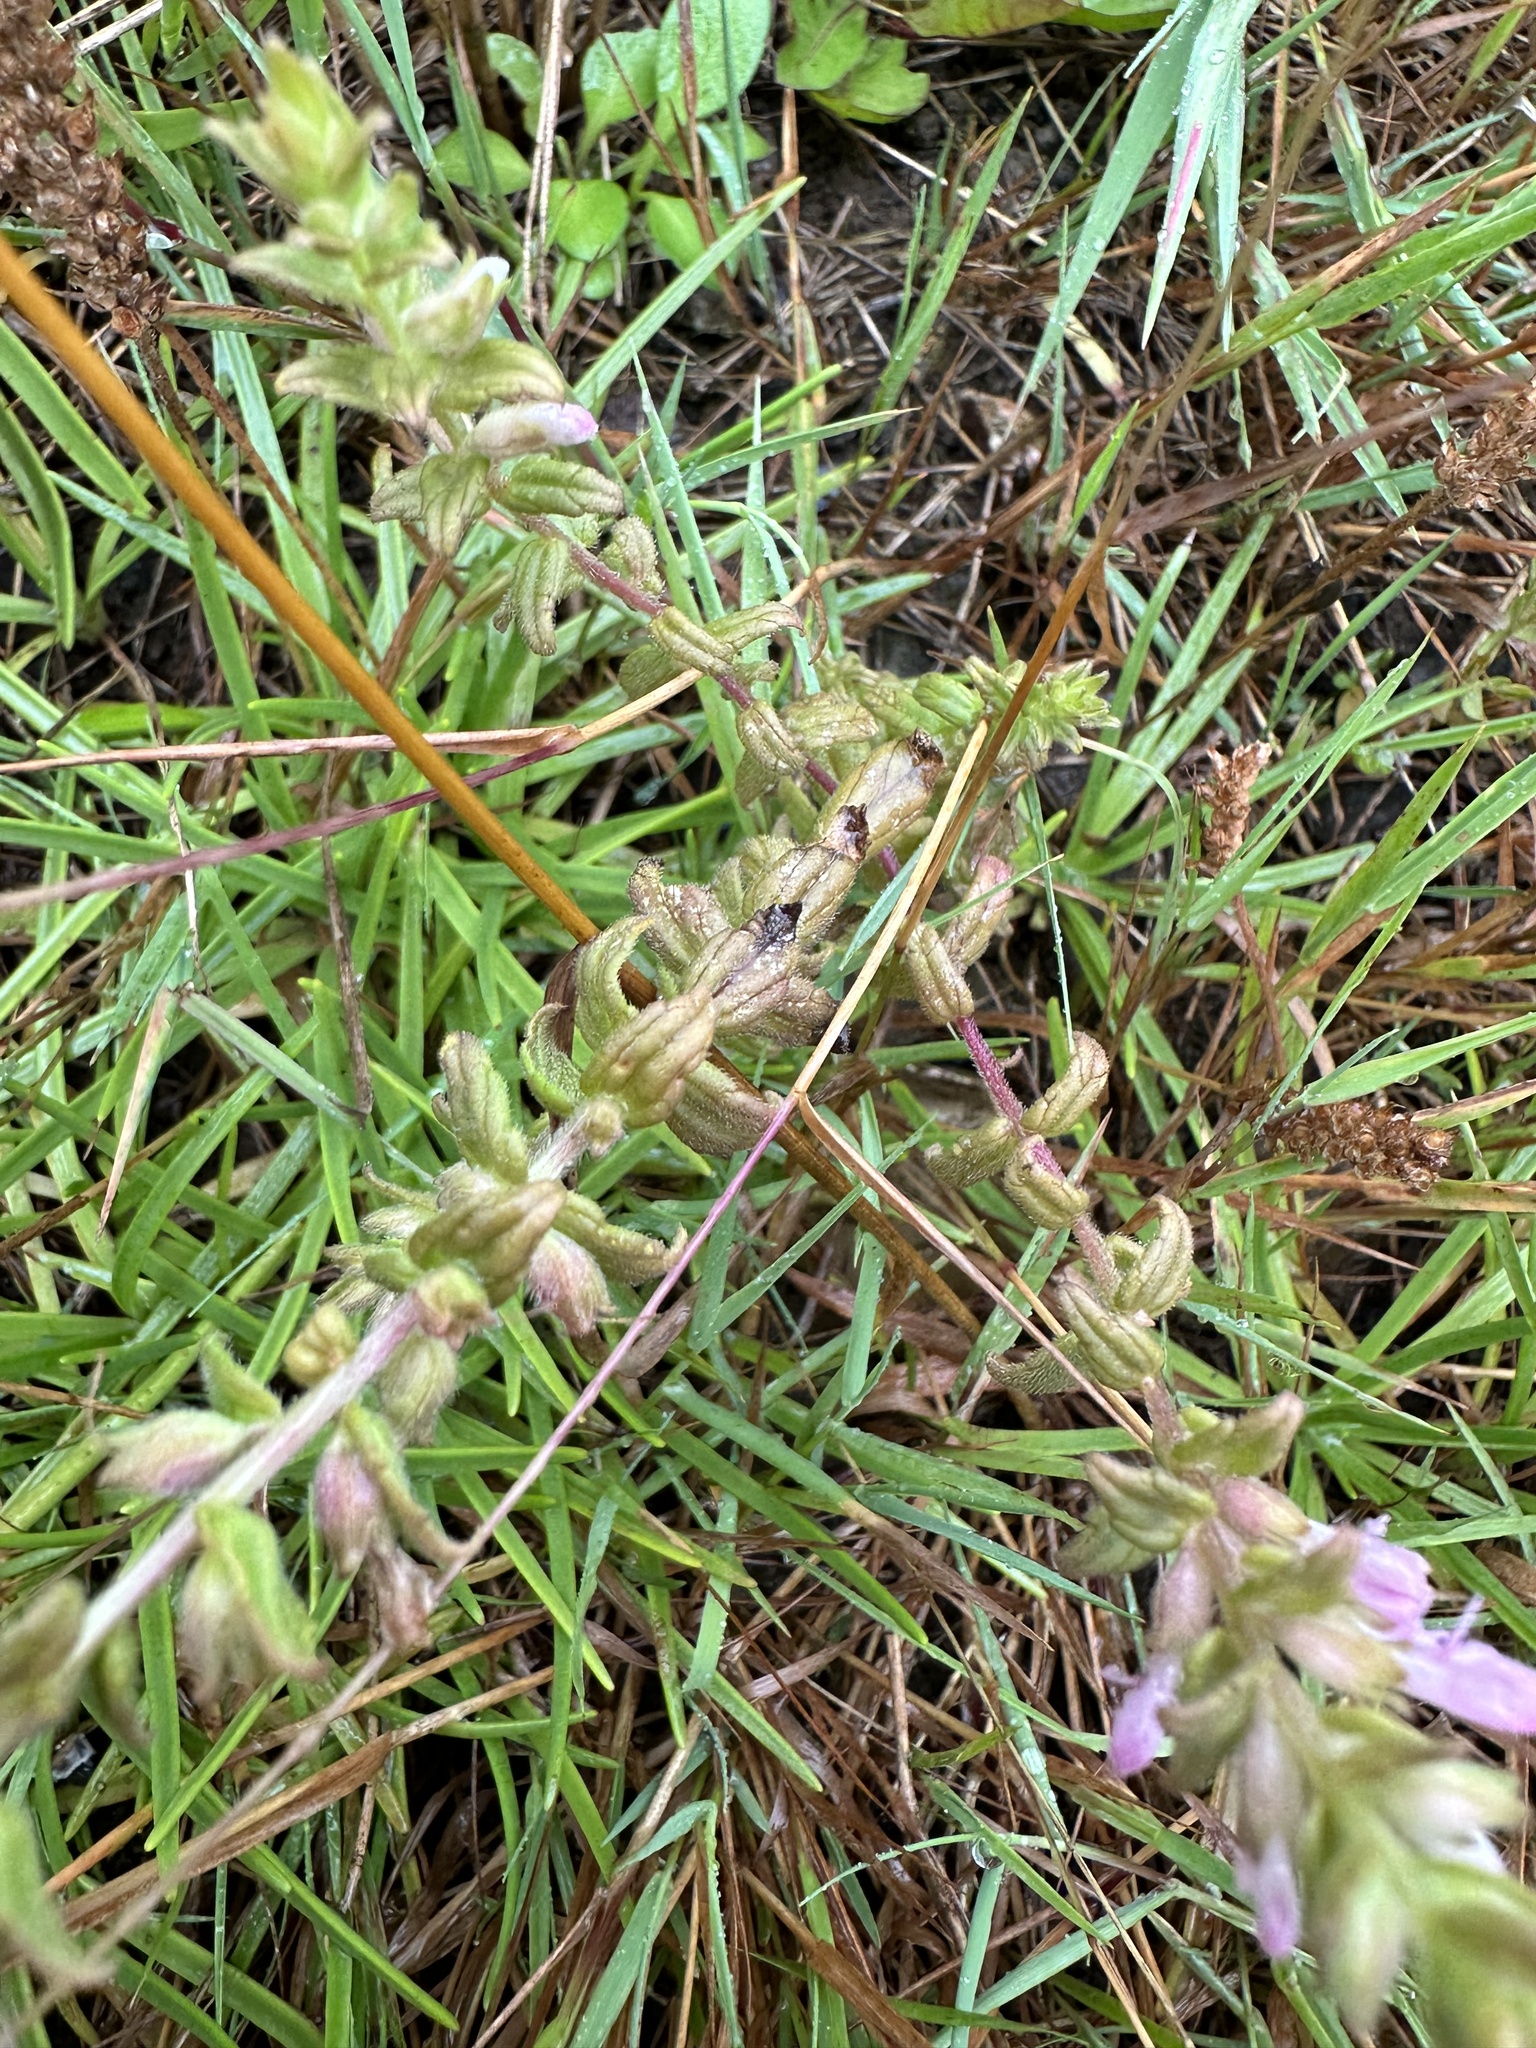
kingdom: Plantae
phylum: Tracheophyta
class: Magnoliopsida
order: Lamiales
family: Orobanchaceae
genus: Odontites
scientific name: Odontites vulgaris
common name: Broomrape
